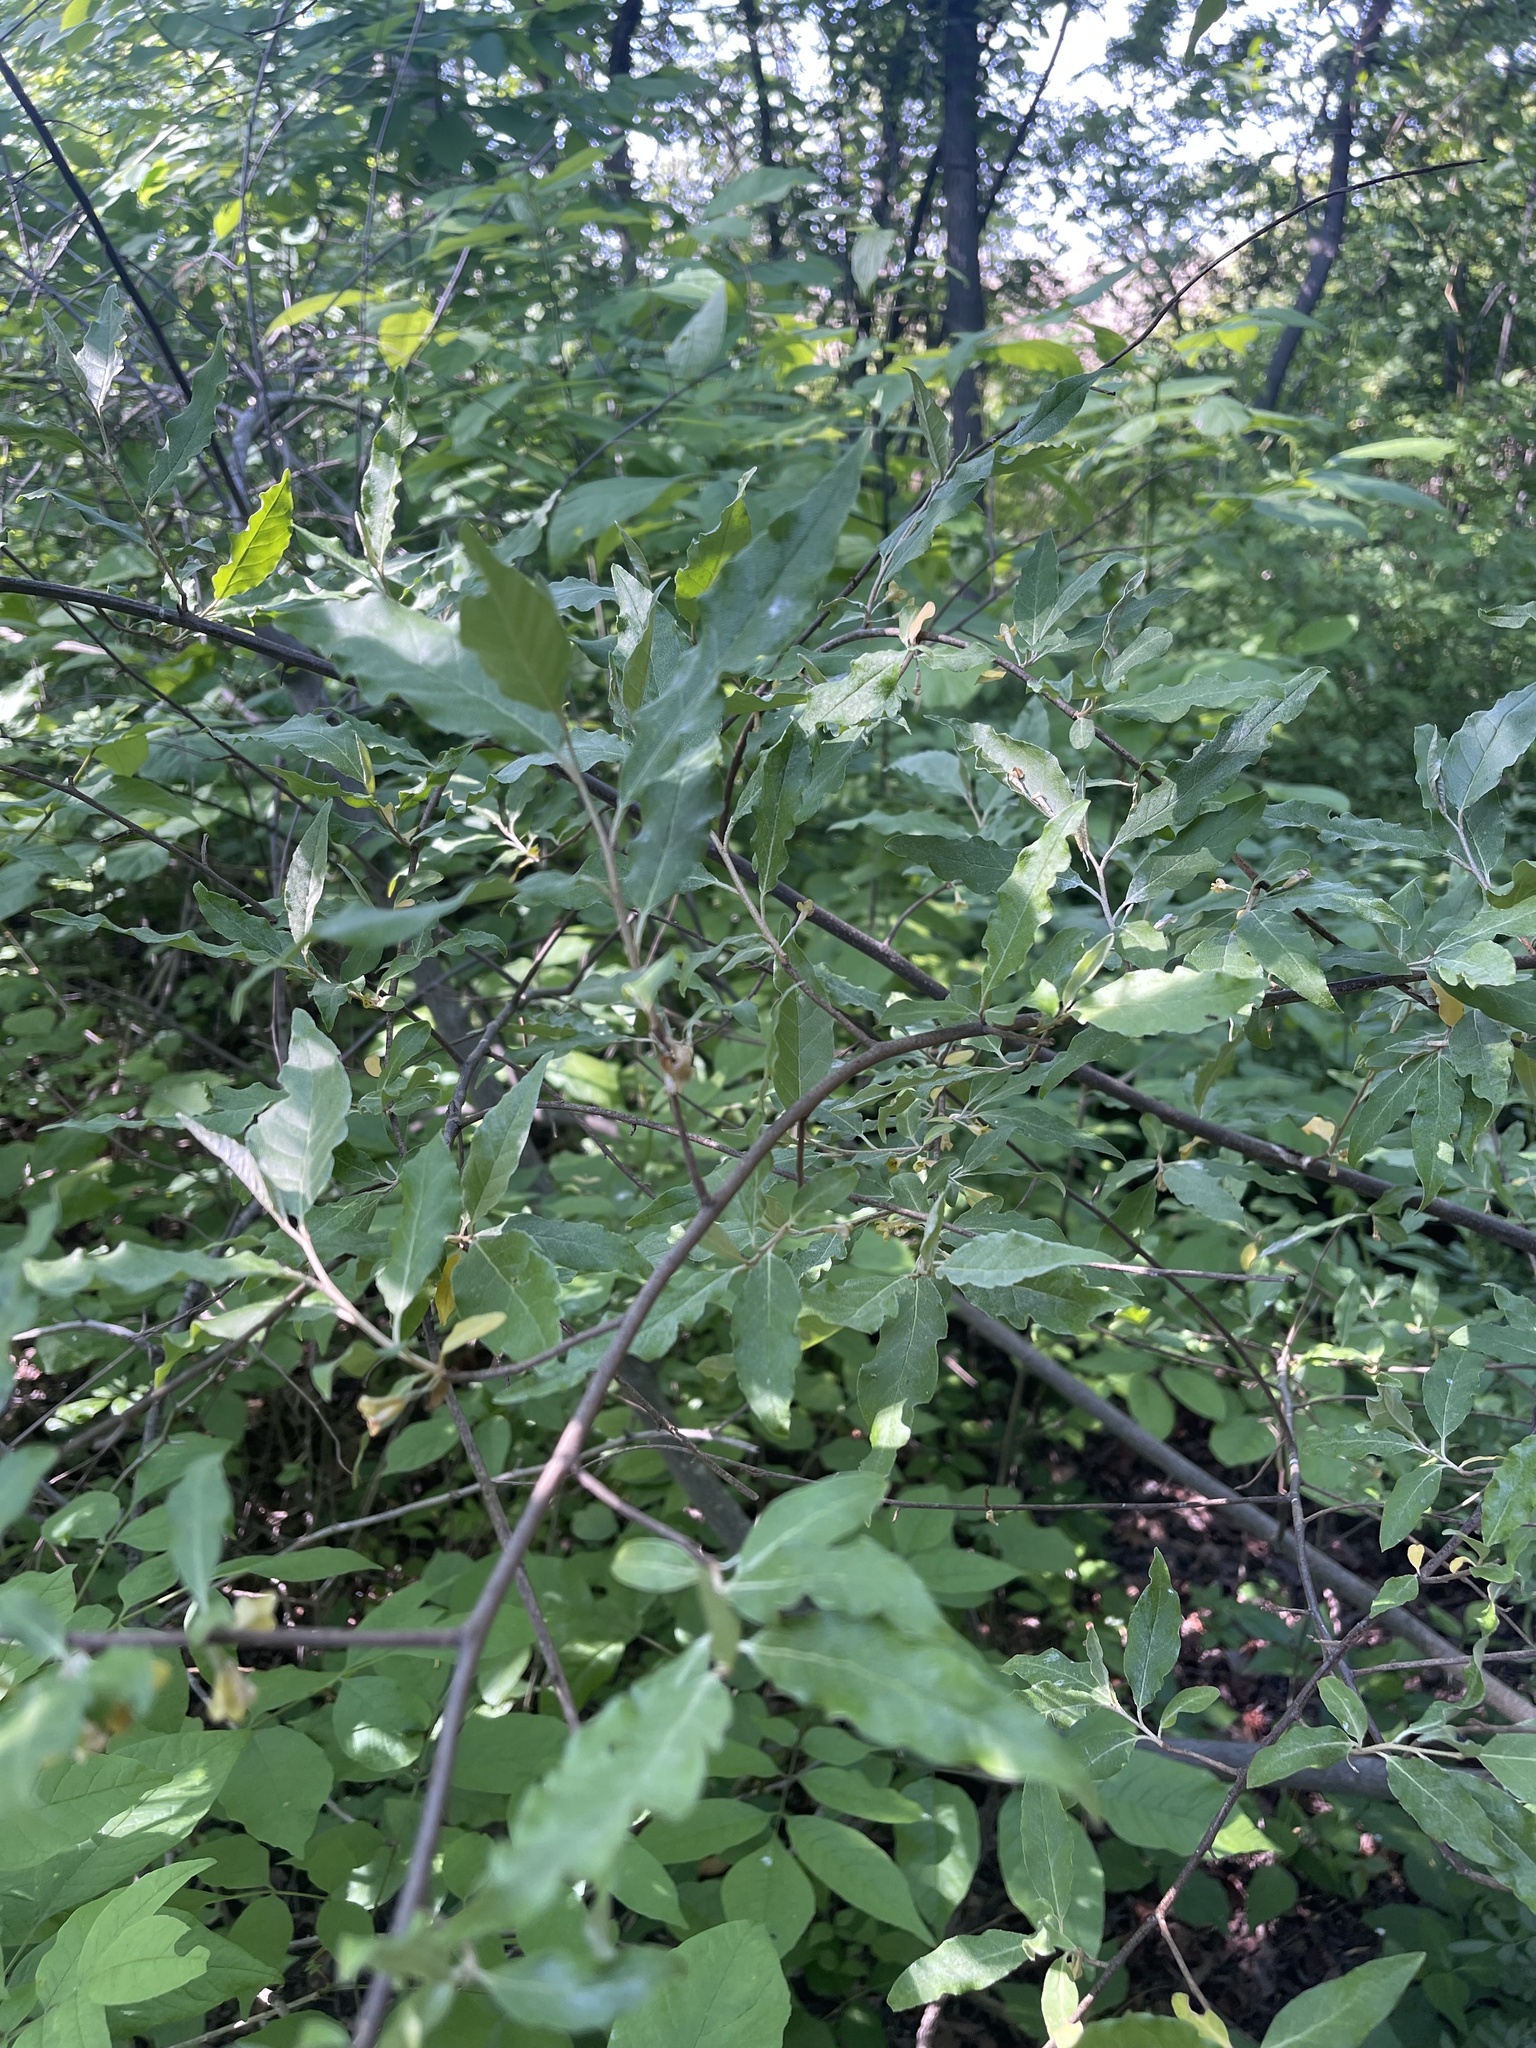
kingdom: Plantae
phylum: Tracheophyta
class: Magnoliopsida
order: Rosales
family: Elaeagnaceae
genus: Elaeagnus
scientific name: Elaeagnus umbellata
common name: Autumn olive
